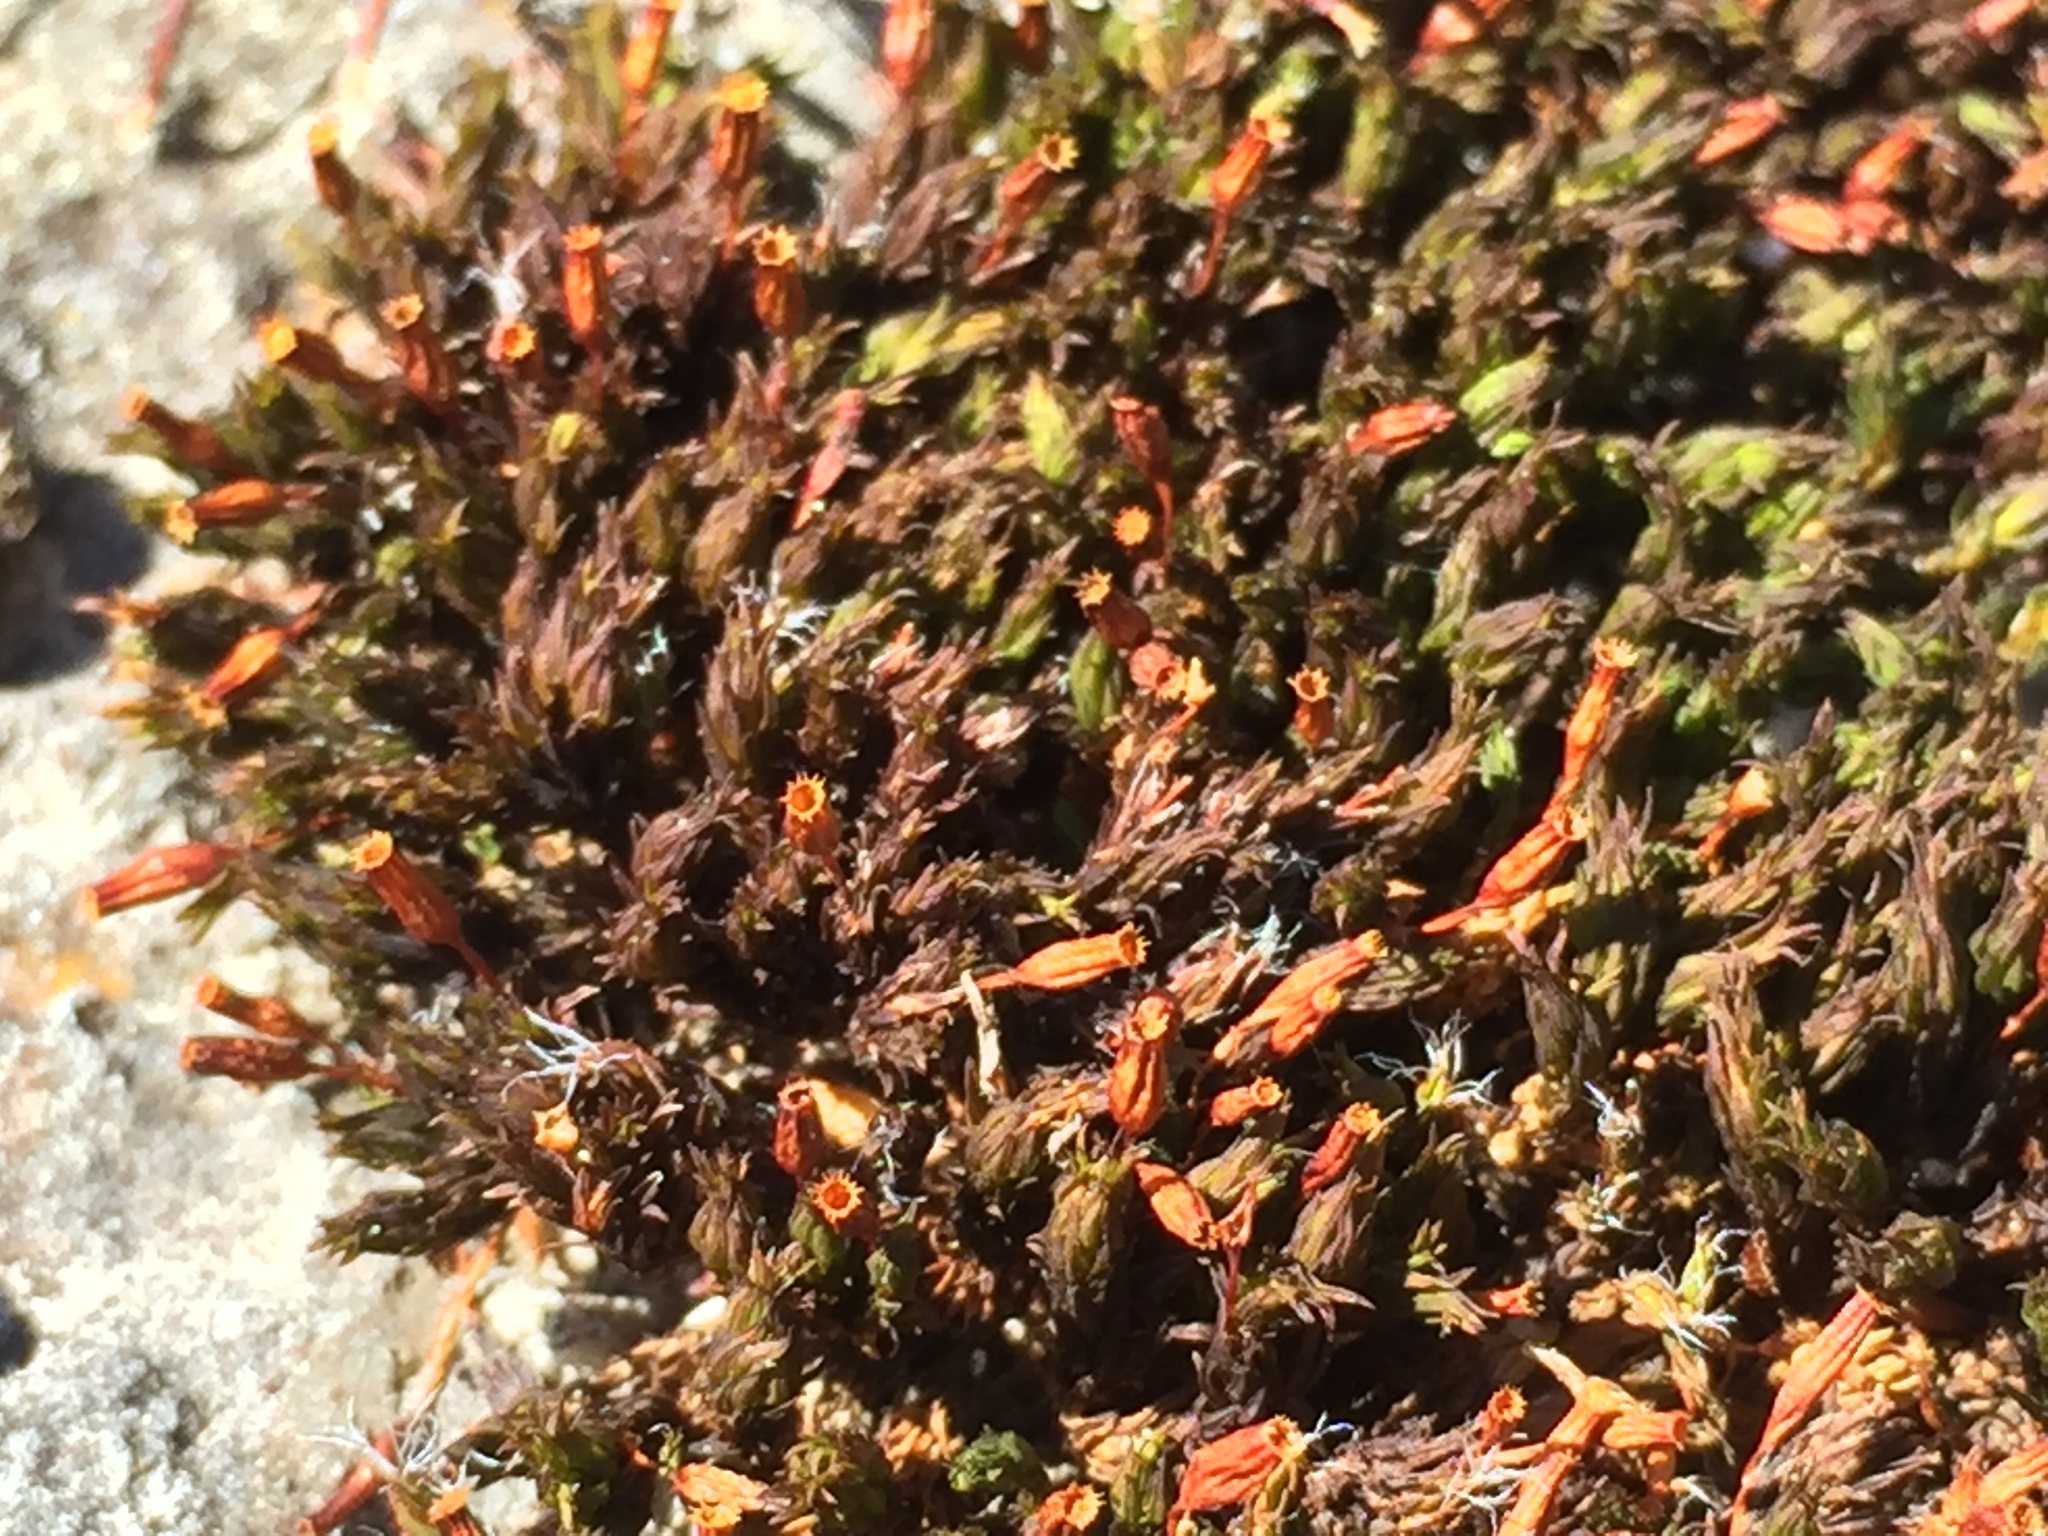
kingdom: Plantae
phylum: Bryophyta
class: Bryopsida
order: Orthotrichales
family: Orthotrichaceae
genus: Orthotrichum
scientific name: Orthotrichum anomalum
